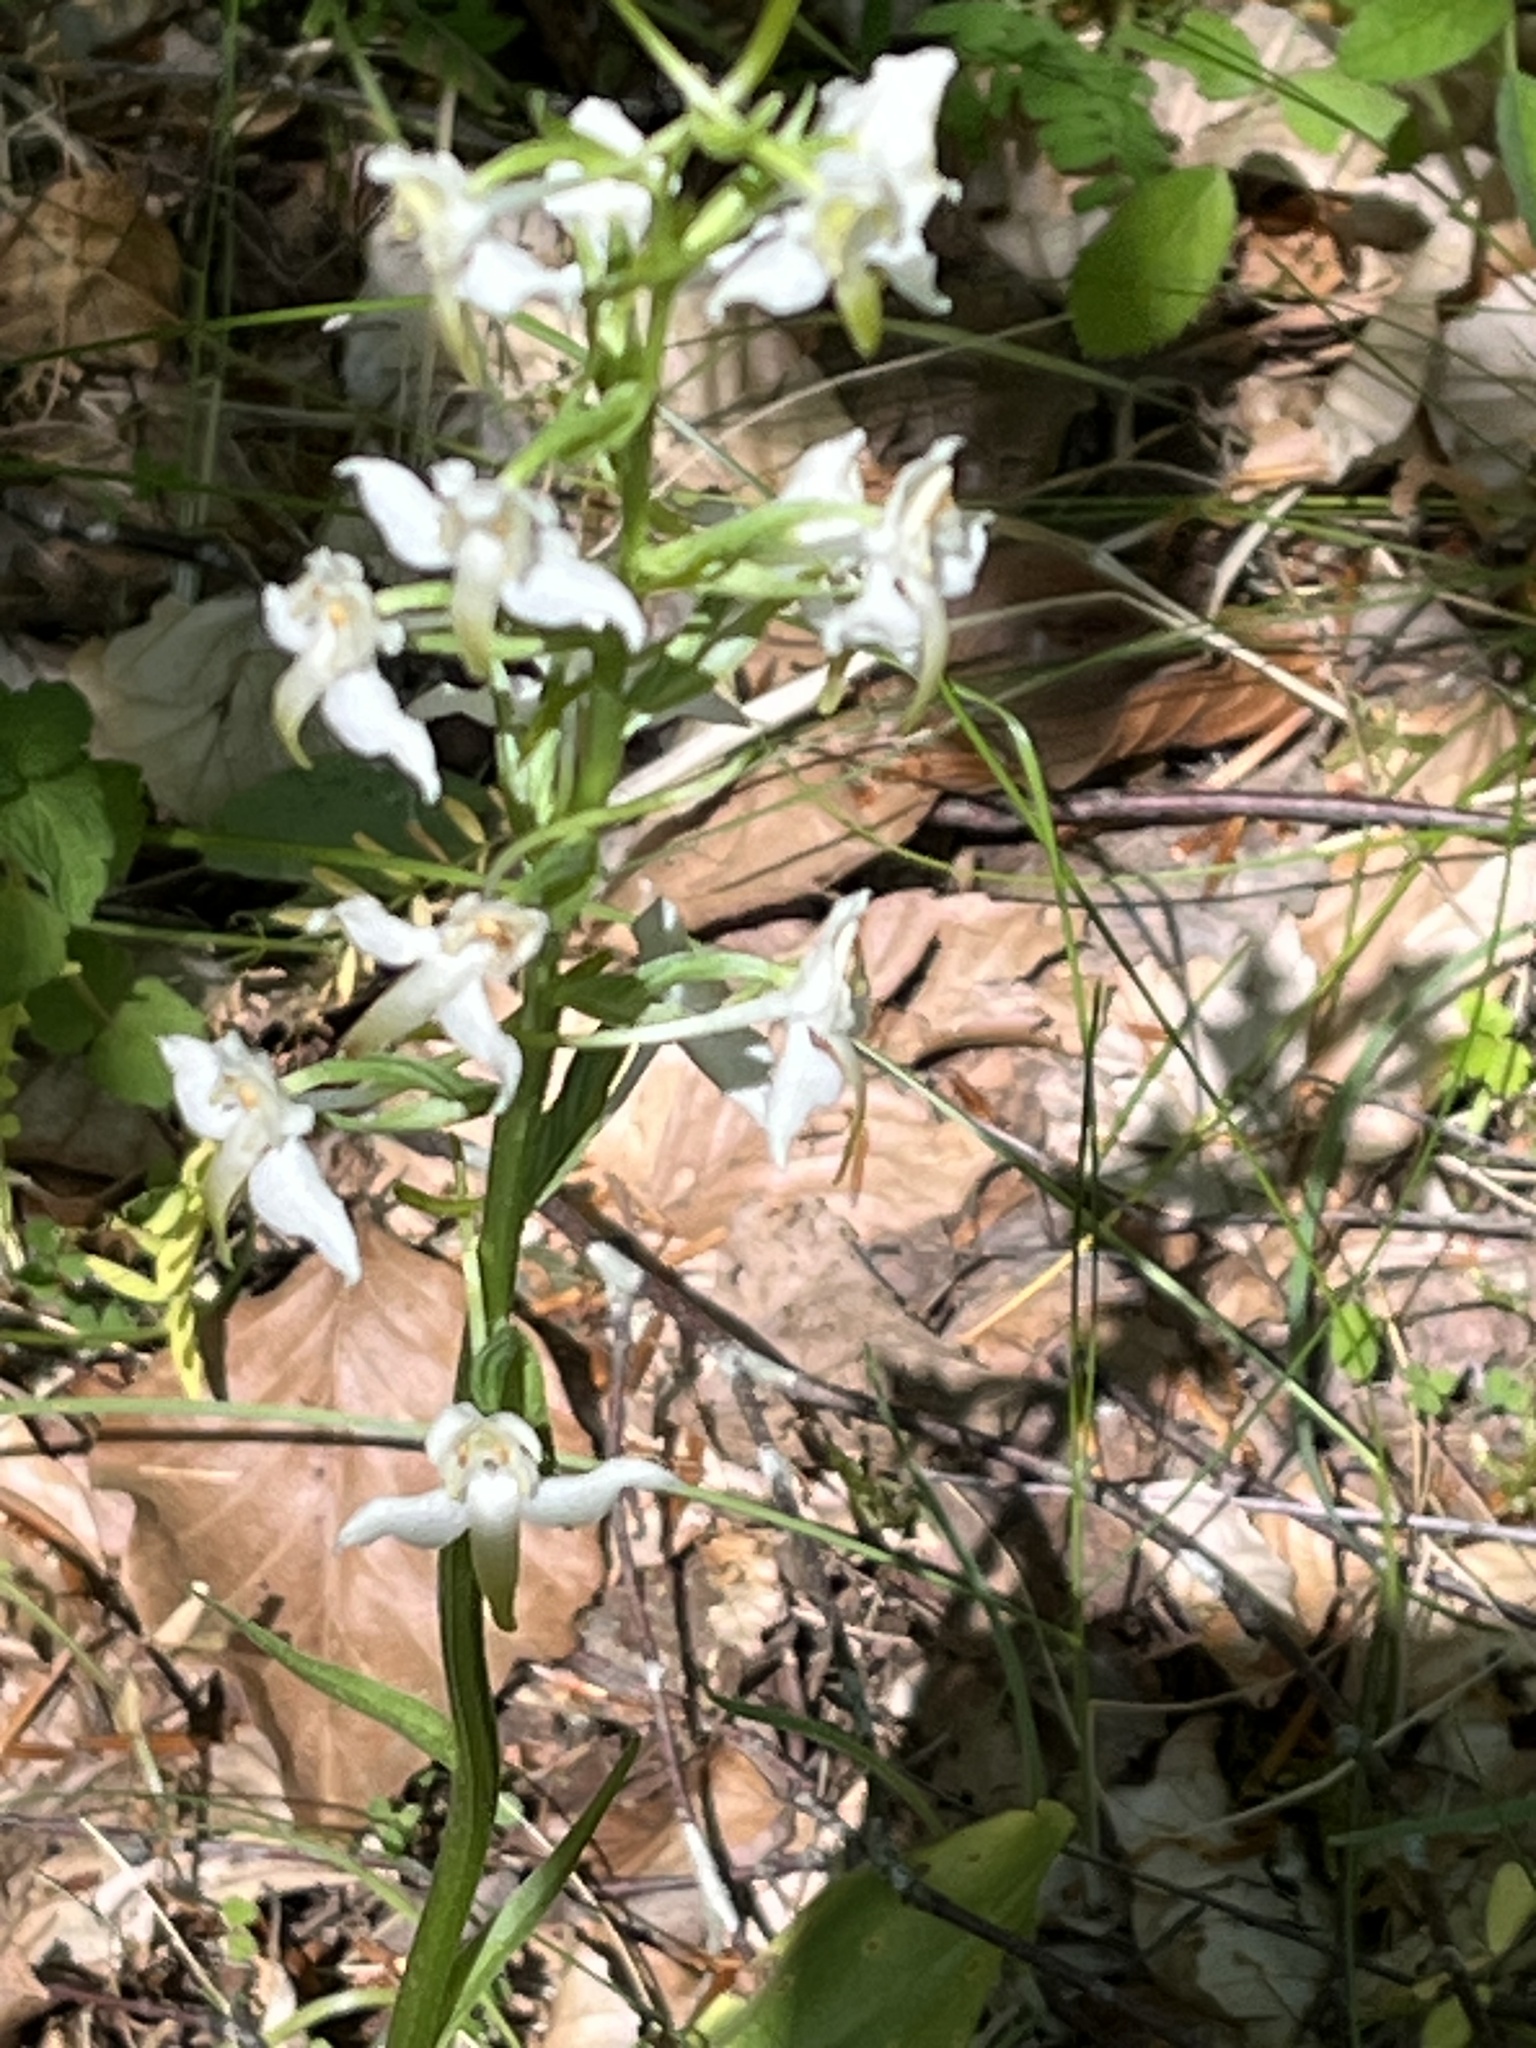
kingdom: Plantae
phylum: Tracheophyta
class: Liliopsida
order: Asparagales
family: Orchidaceae
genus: Platanthera
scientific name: Platanthera chlorantha
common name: Greater butterfly-orchid
